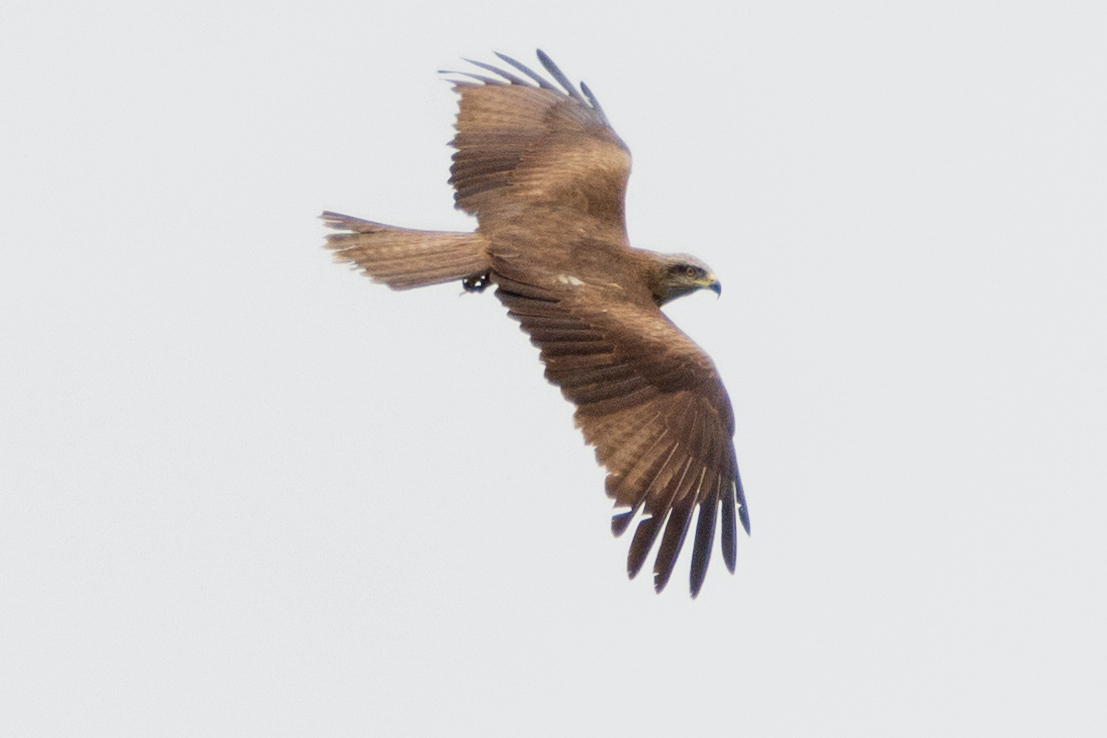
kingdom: Animalia
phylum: Chordata
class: Aves
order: Accipitriformes
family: Accipitridae
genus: Milvus
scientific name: Milvus migrans
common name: Black kite
